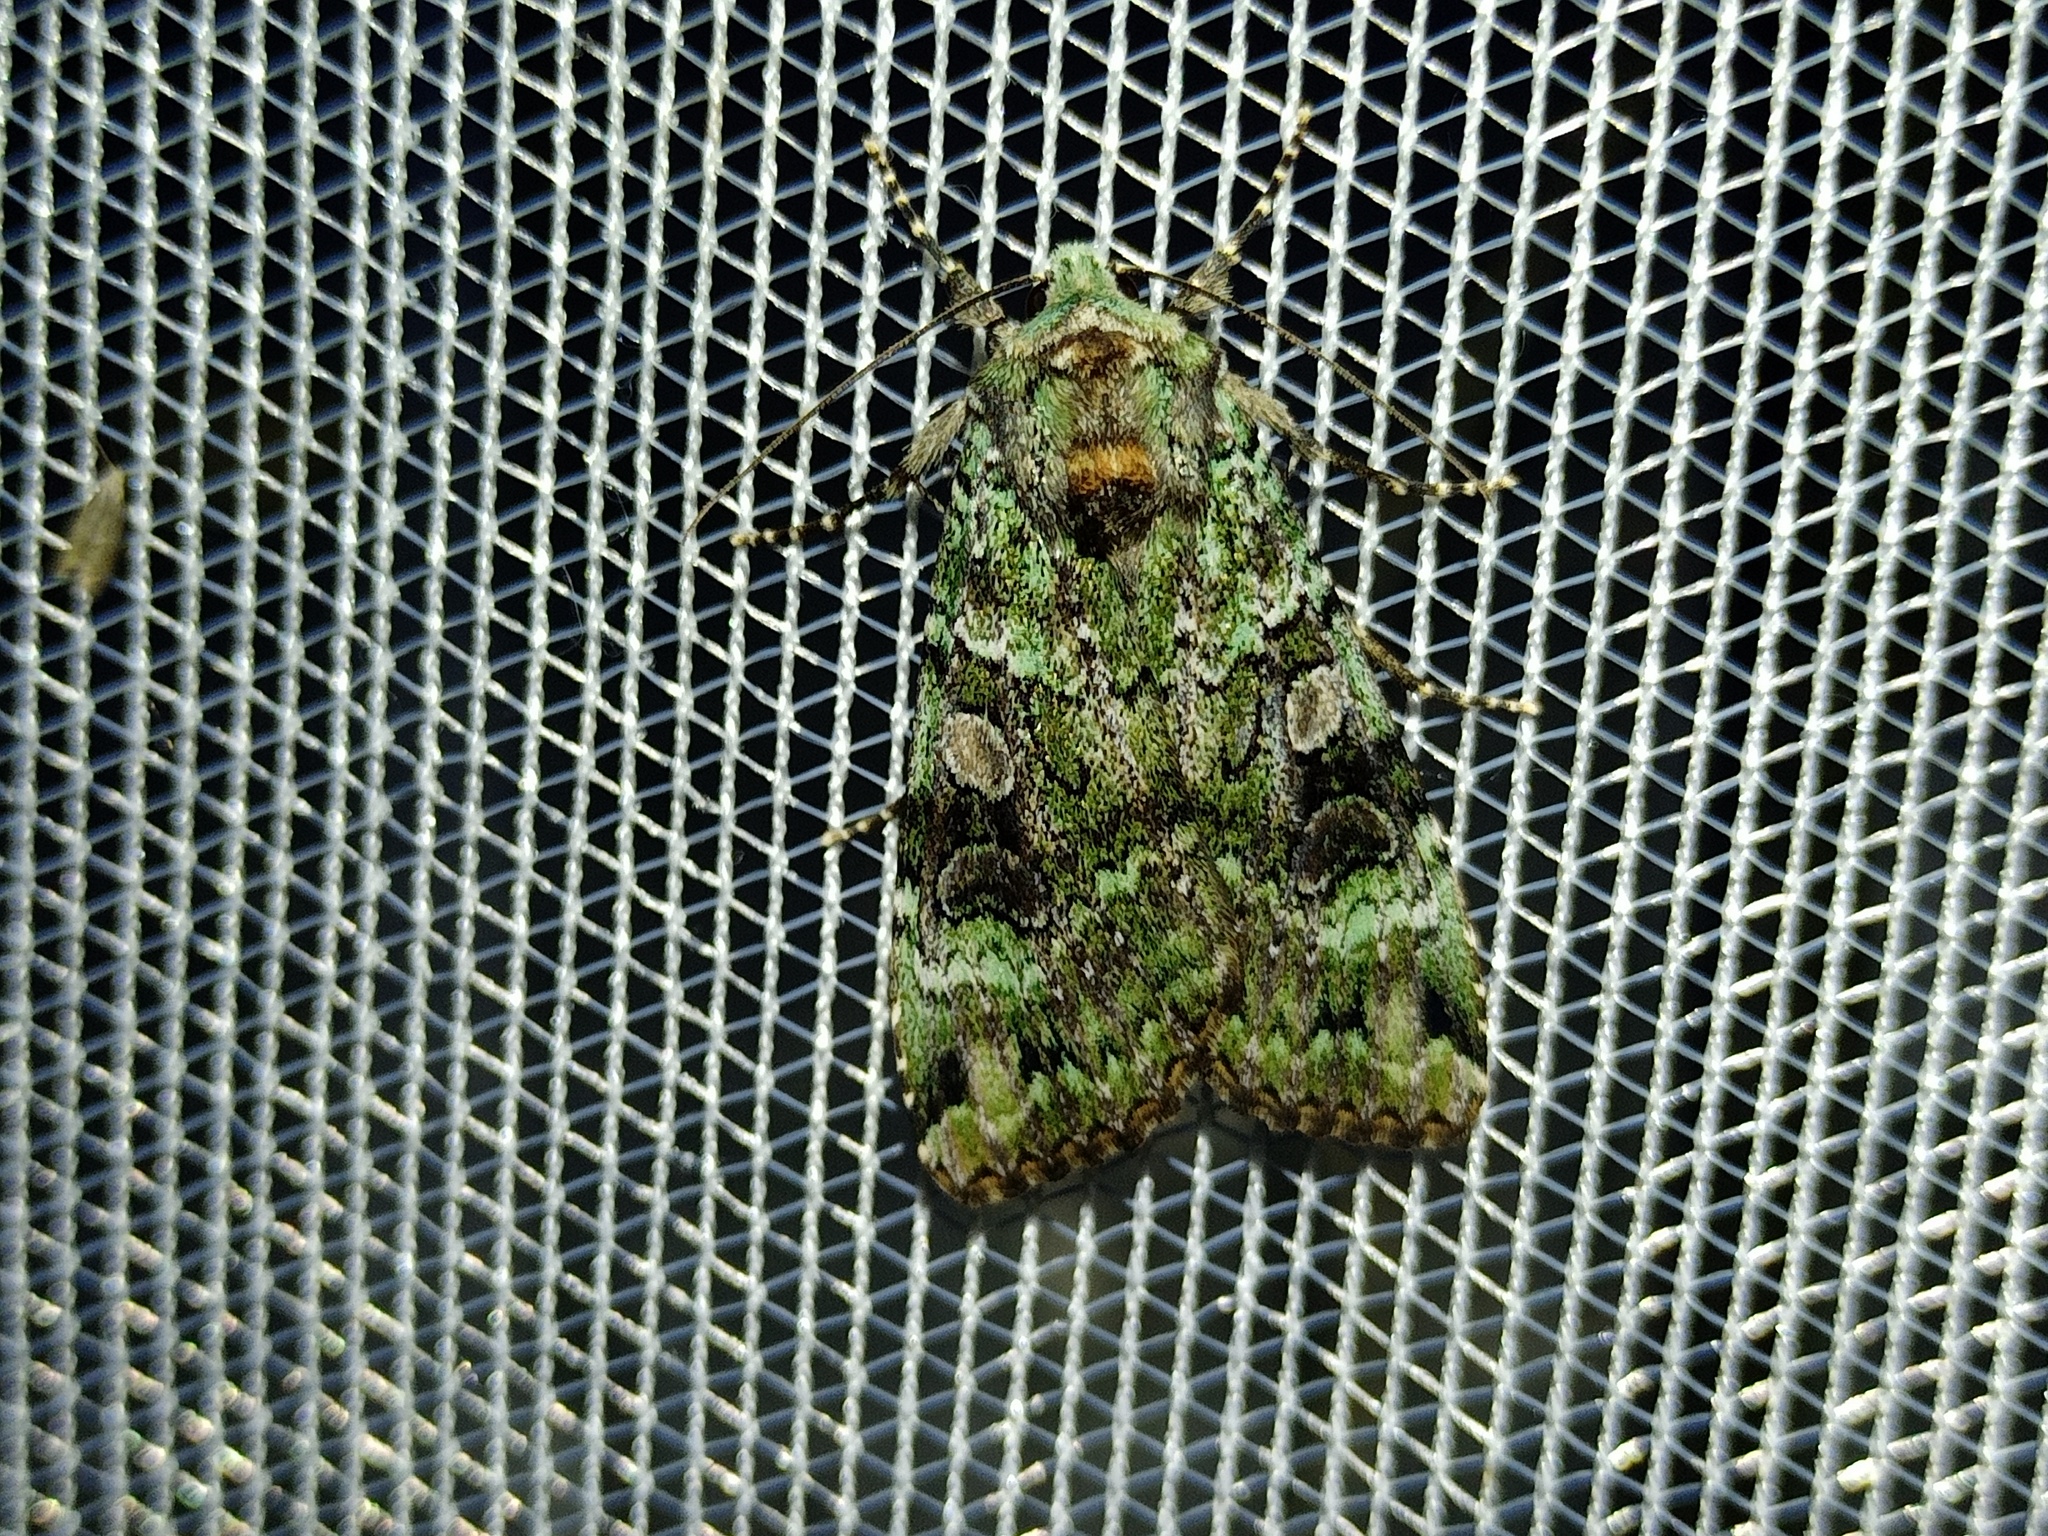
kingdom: Animalia
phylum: Arthropoda
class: Insecta
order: Lepidoptera
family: Noctuidae
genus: Anaplectoides
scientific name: Anaplectoides prasina
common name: Green arches
